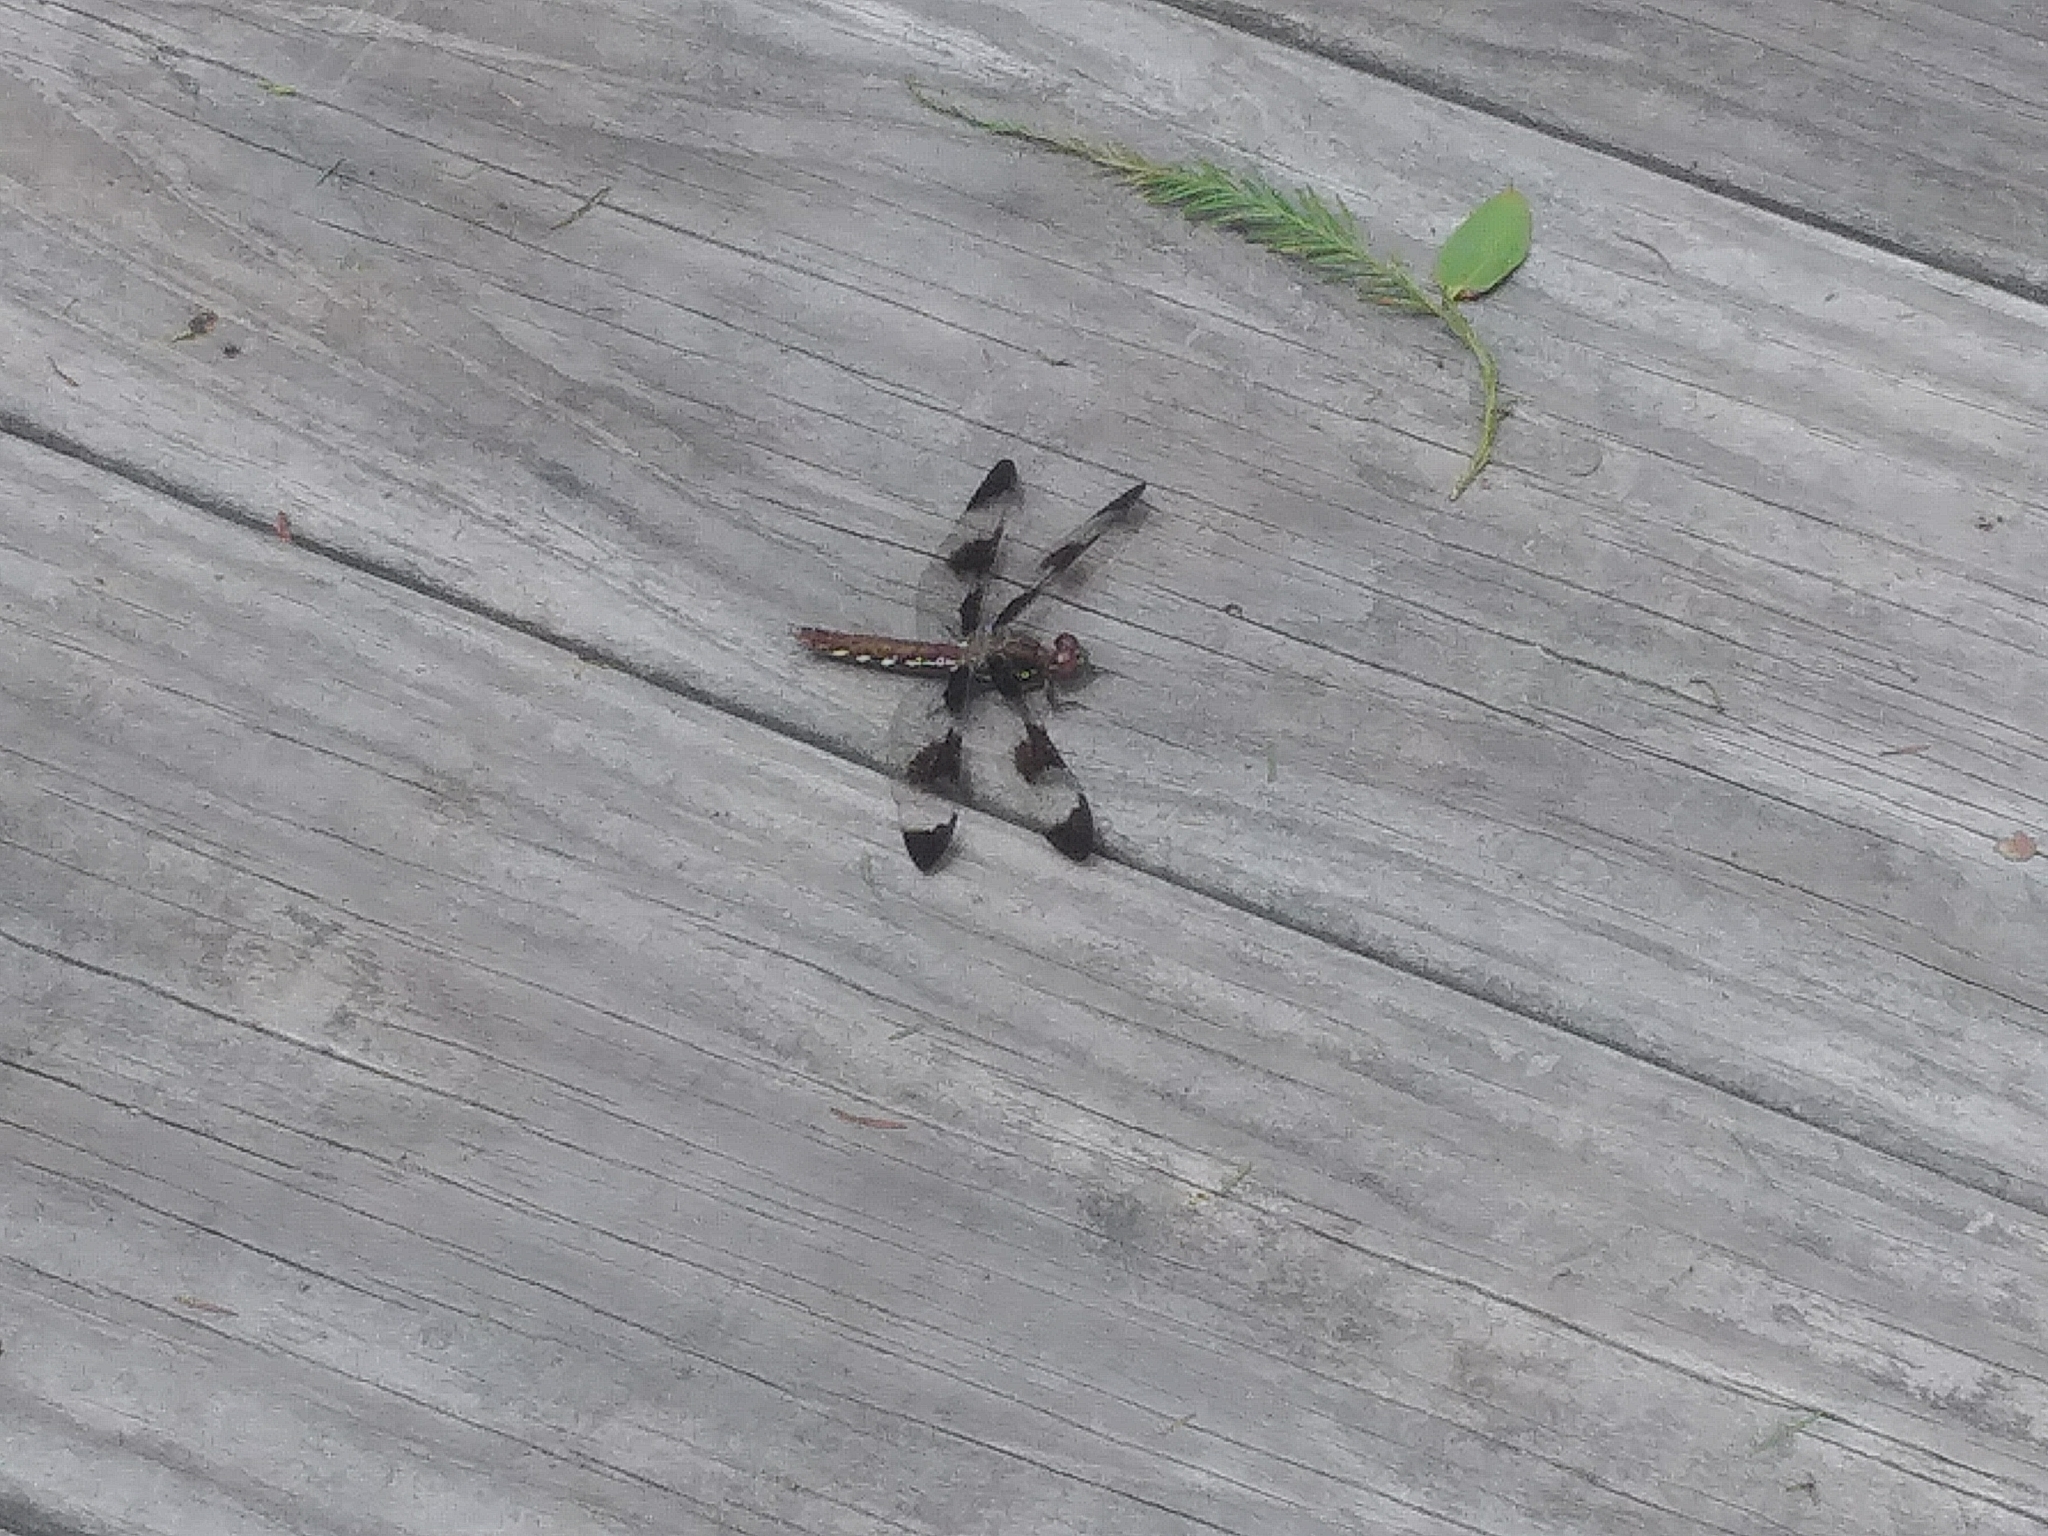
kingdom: Animalia
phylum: Arthropoda
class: Insecta
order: Odonata
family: Libellulidae
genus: Plathemis
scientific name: Plathemis lydia
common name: Common whitetail
